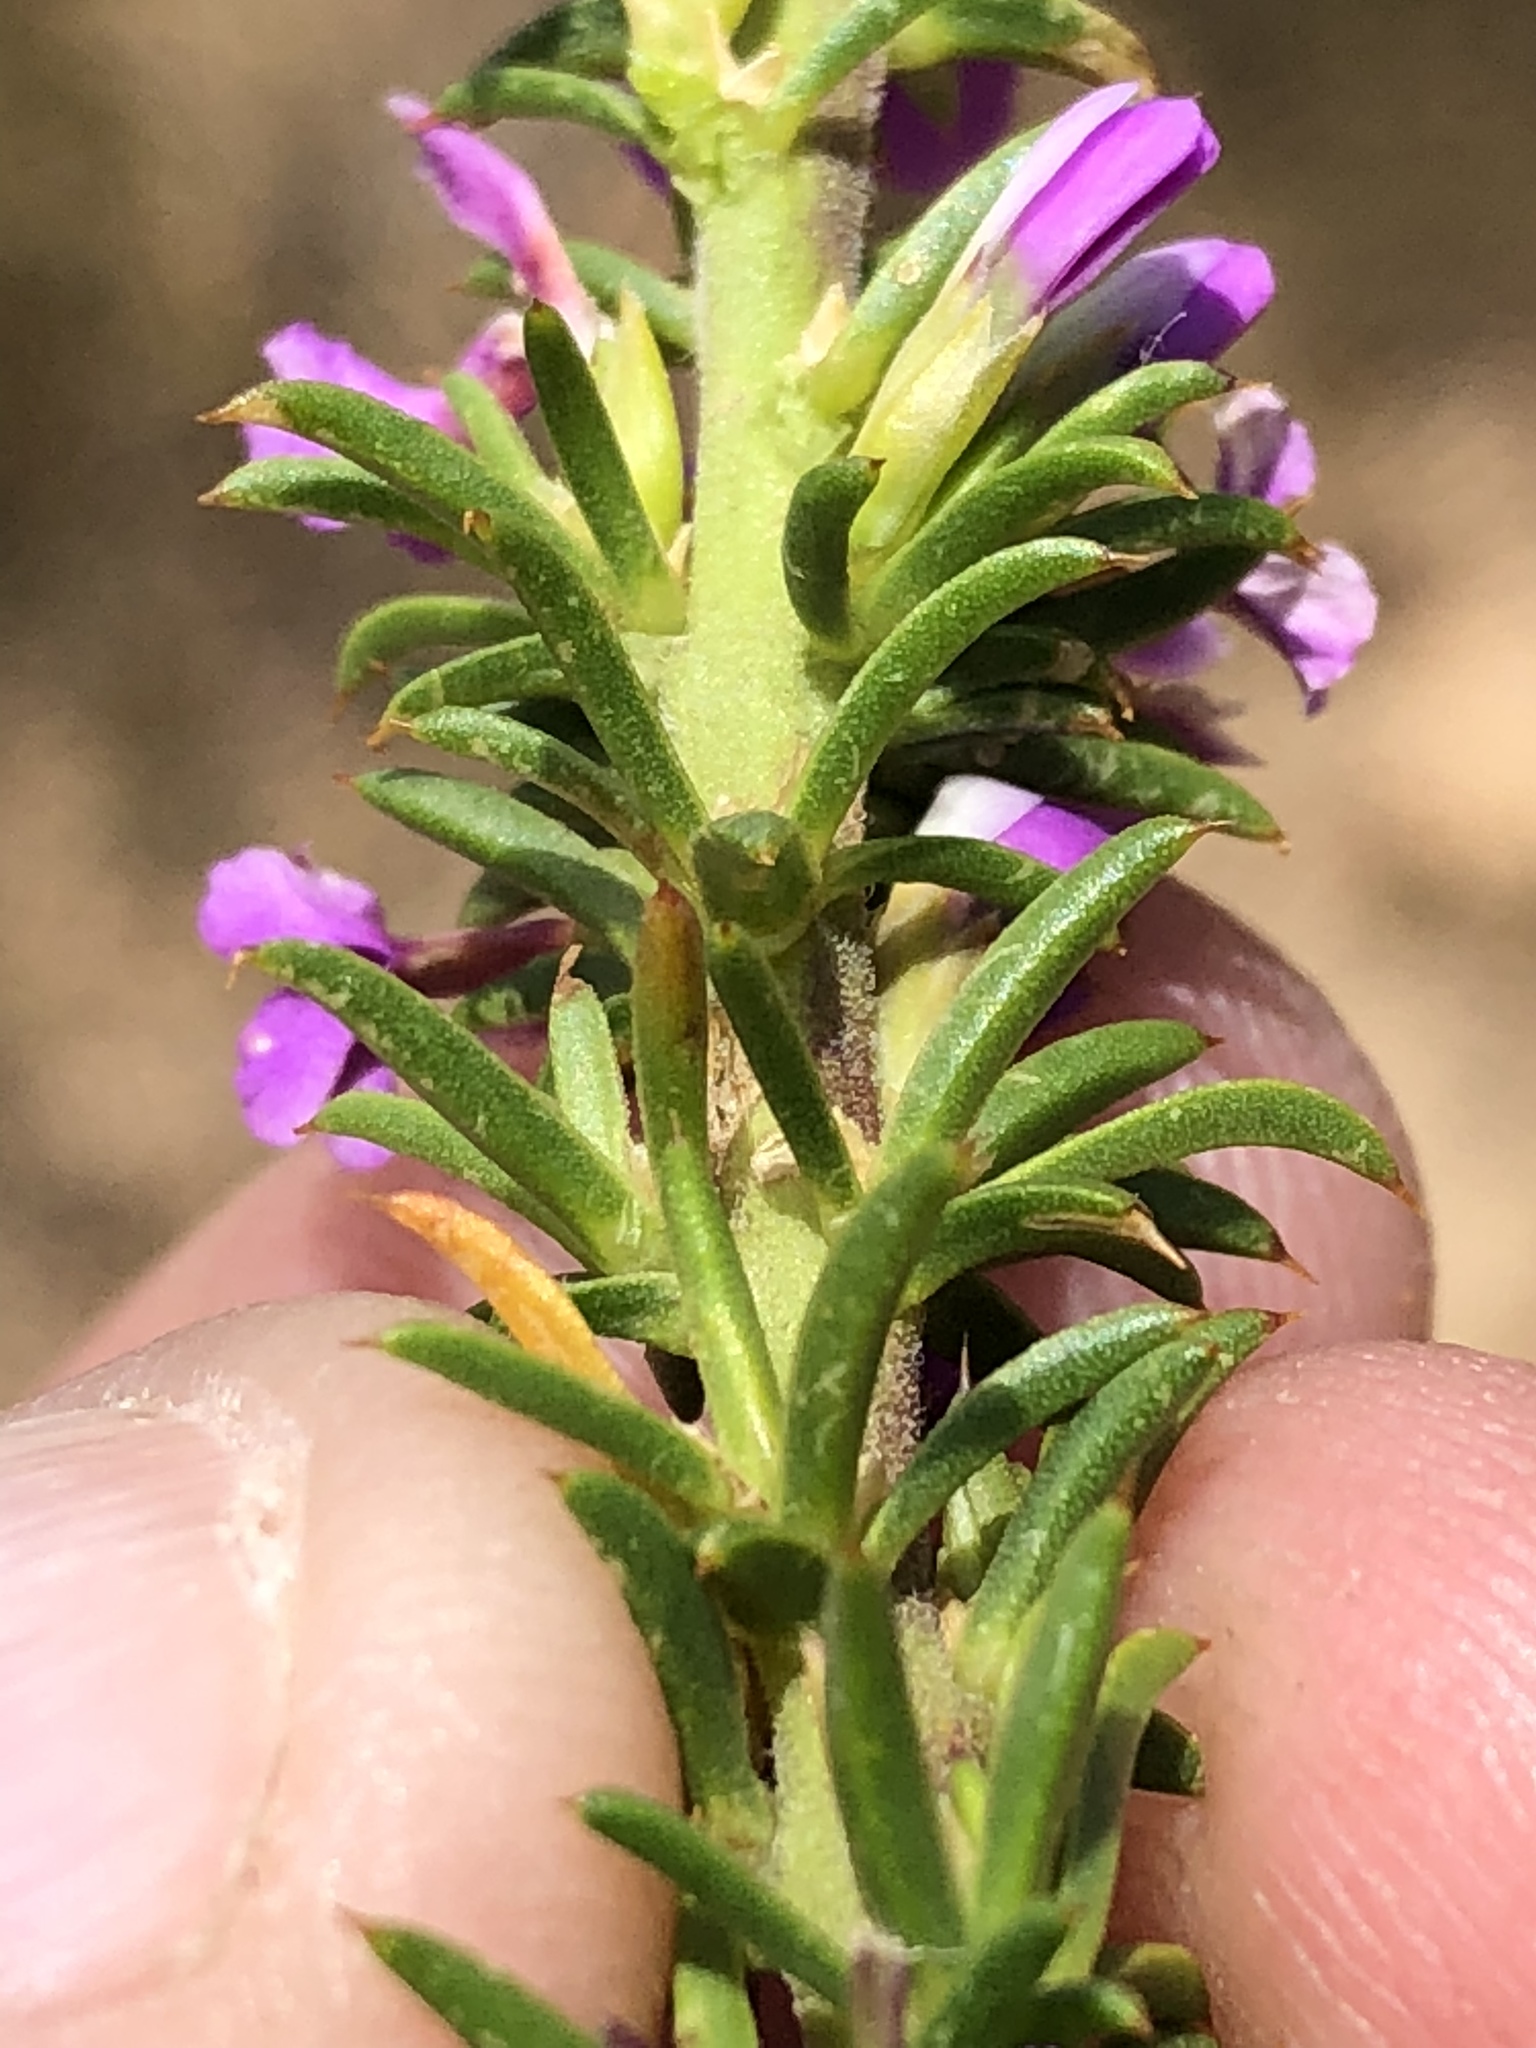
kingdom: Plantae
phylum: Tracheophyta
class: Magnoliopsida
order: Fabales
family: Polygalaceae
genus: Muraltia
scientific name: Muraltia heisteria
